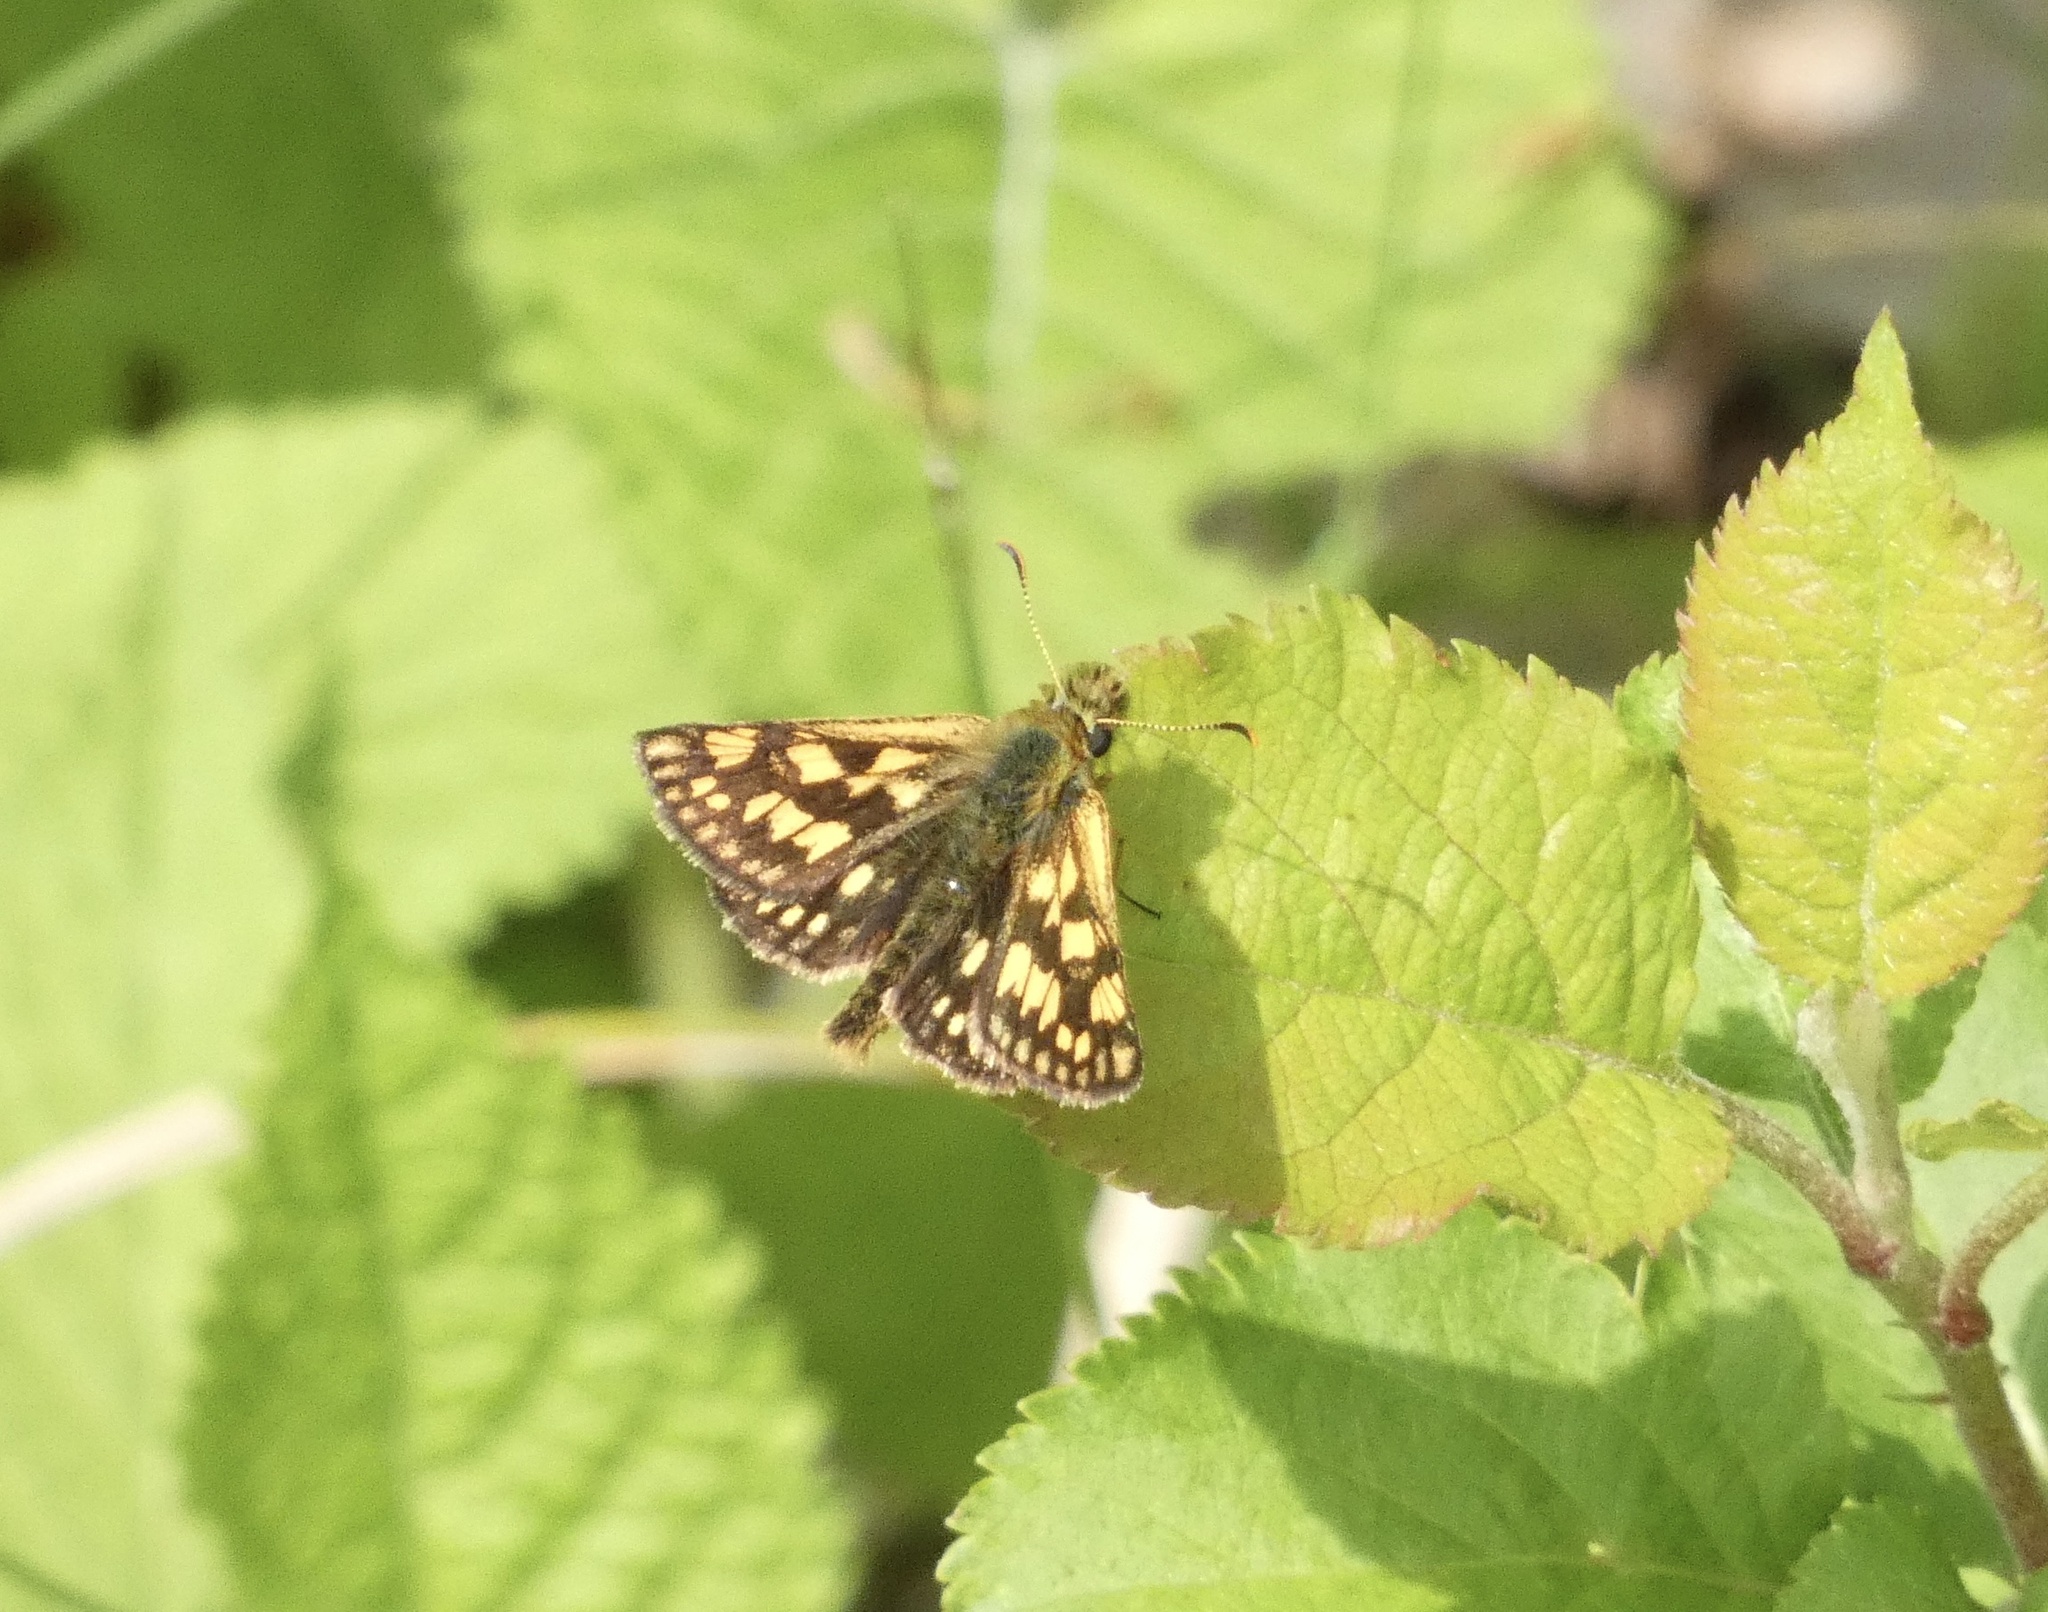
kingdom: Animalia
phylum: Arthropoda
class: Insecta
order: Lepidoptera
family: Hesperiidae
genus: Carterocephalus
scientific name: Carterocephalus palaemon
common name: Chequered skipper
